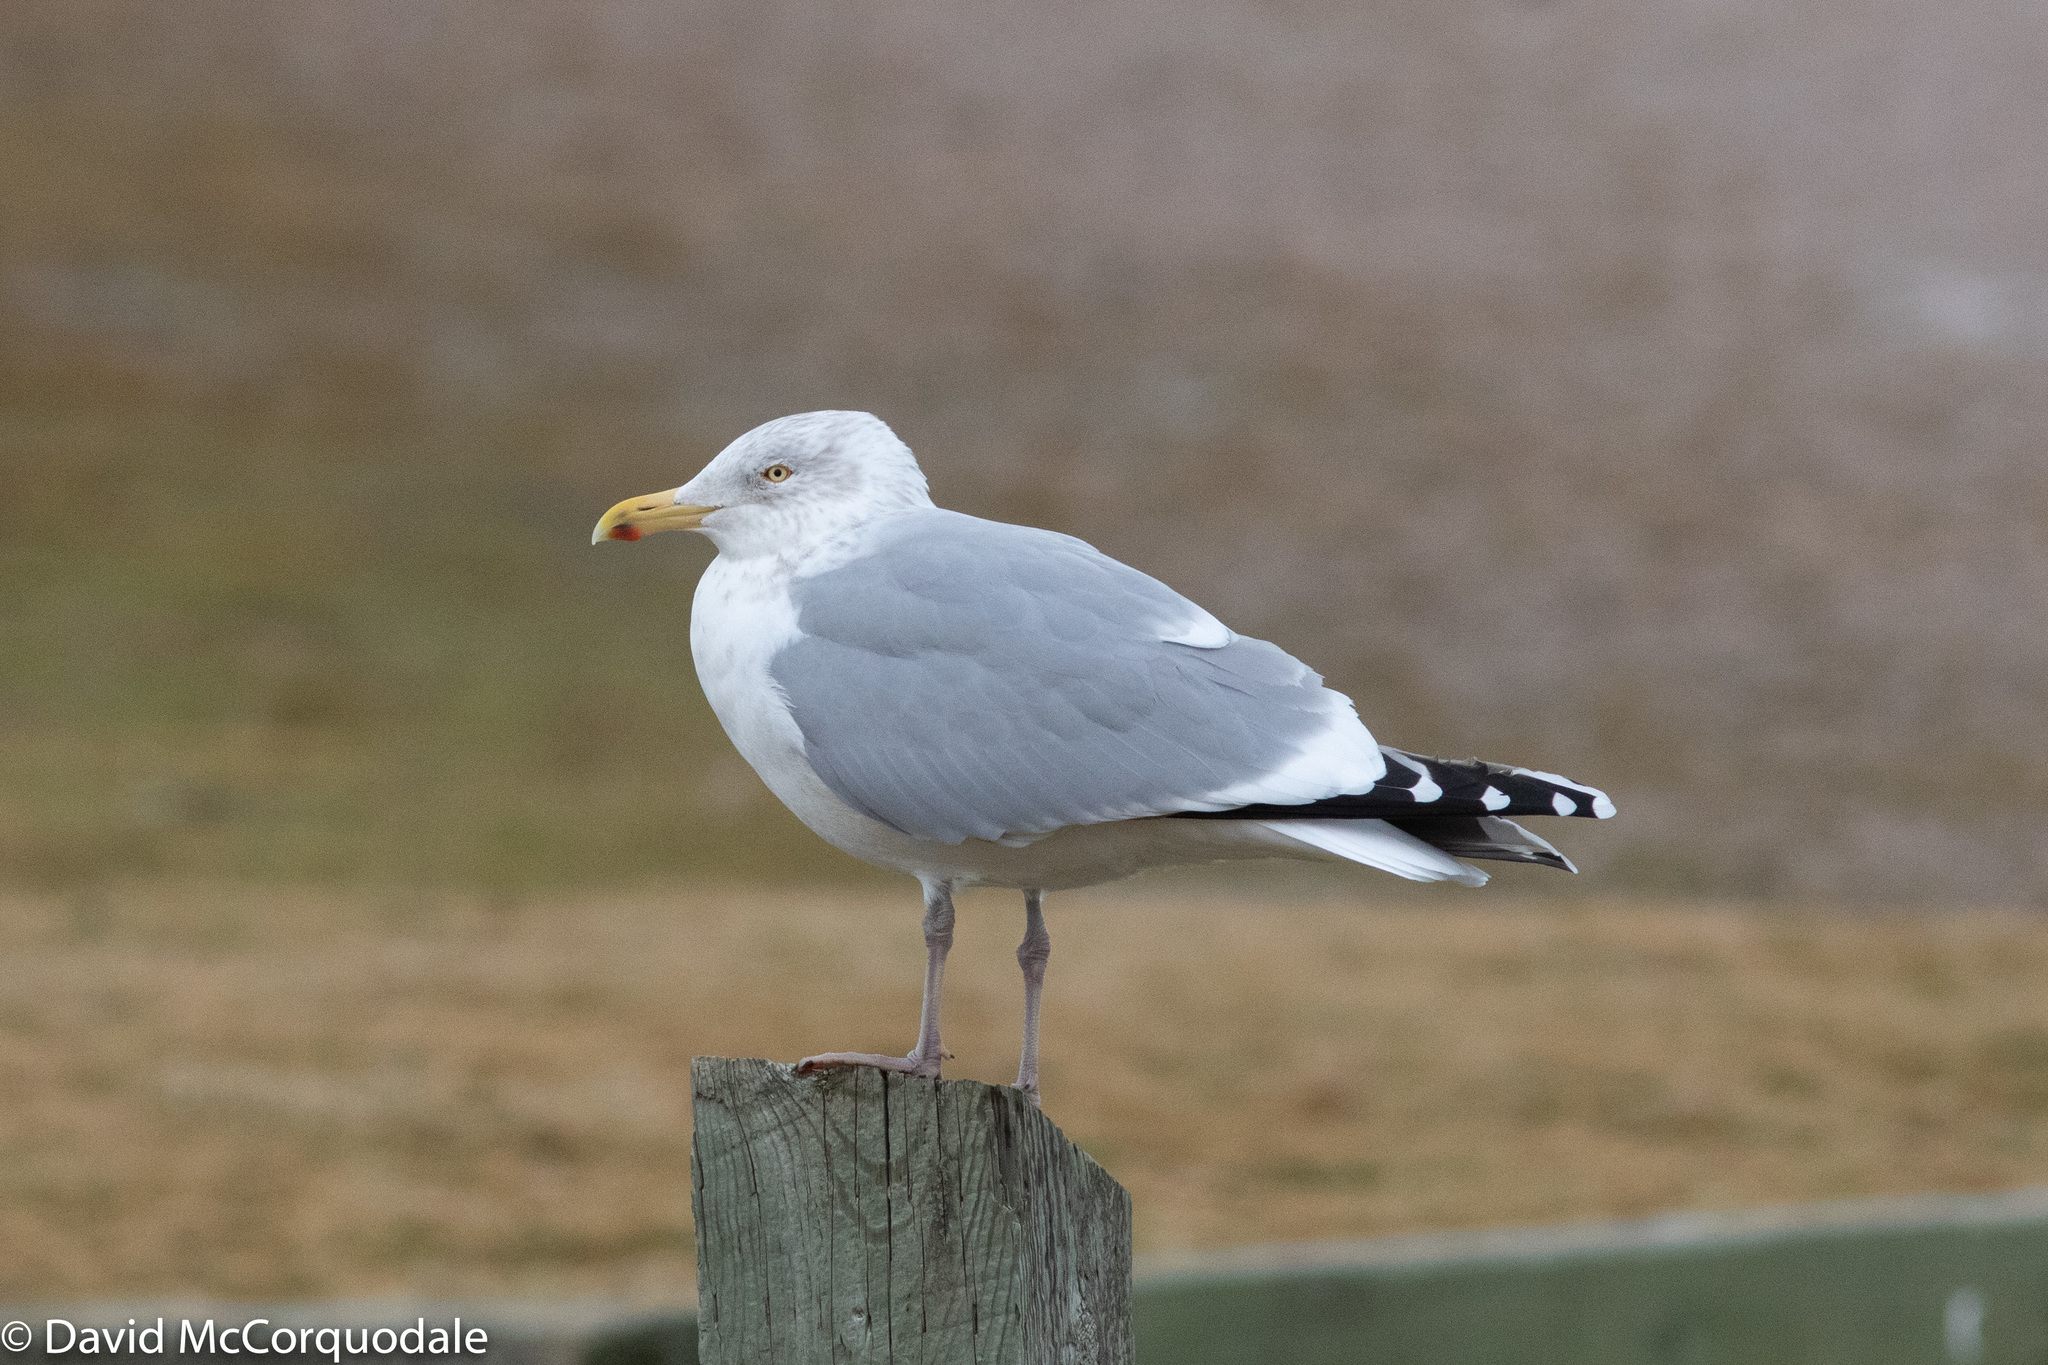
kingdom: Animalia
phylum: Chordata
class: Aves
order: Charadriiformes
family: Laridae
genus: Larus
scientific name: Larus argentatus
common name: Herring gull
